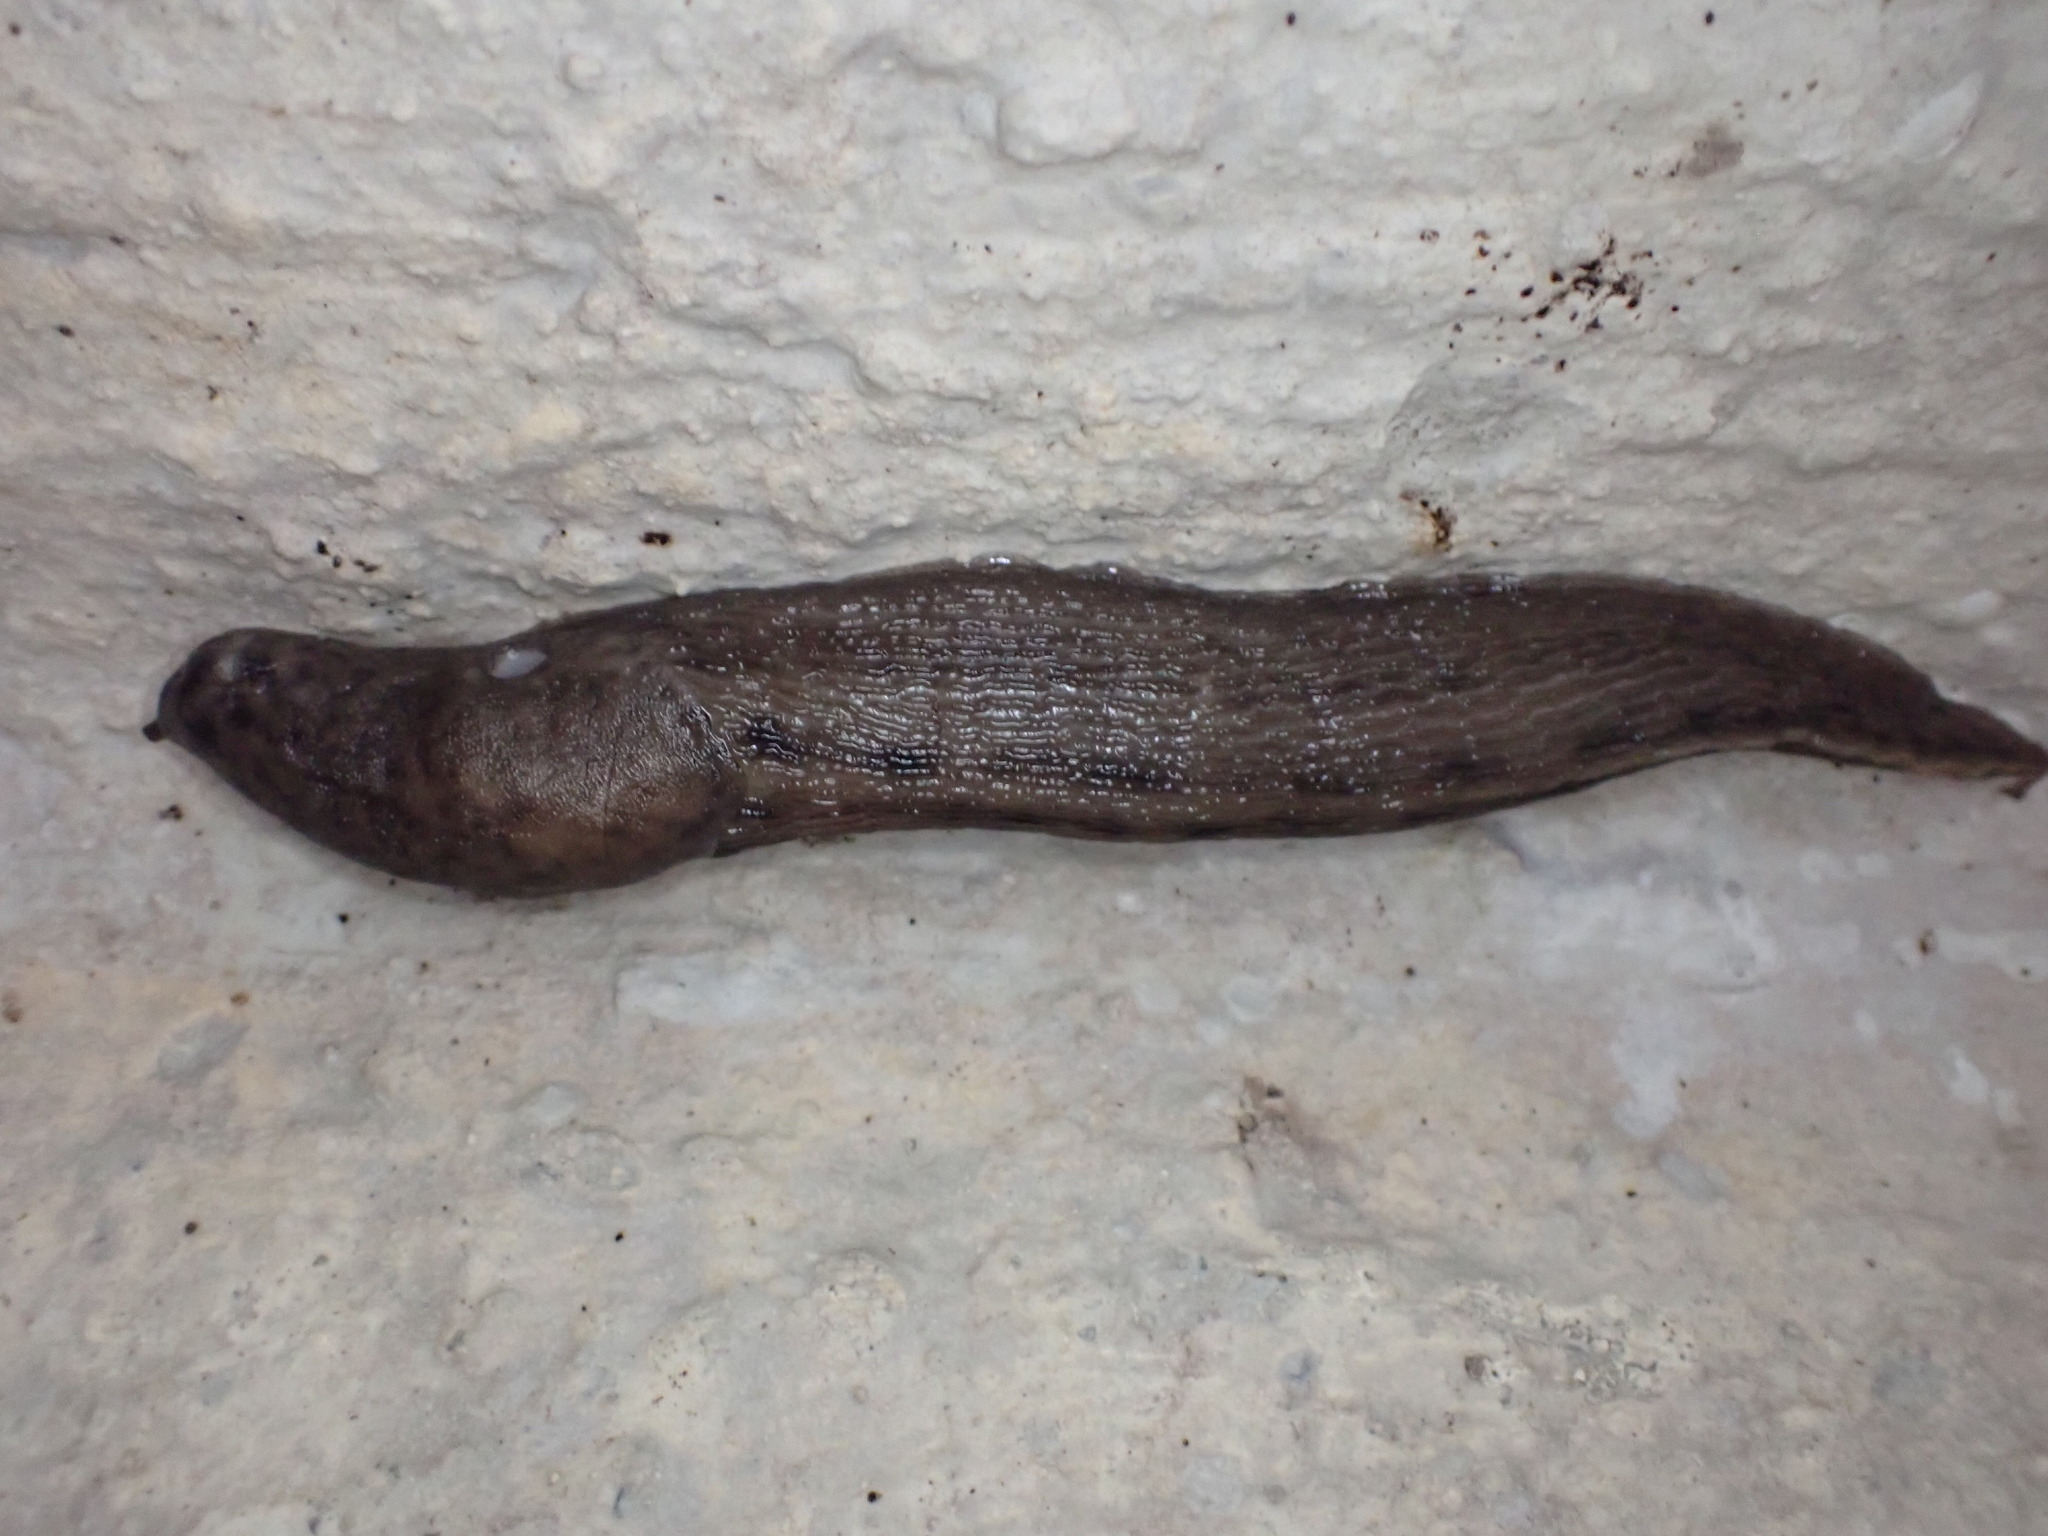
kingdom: Animalia
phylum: Mollusca
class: Gastropoda
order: Stylommatophora
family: Limacidae
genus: Limax
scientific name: Limax maximus
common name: Great grey slug
